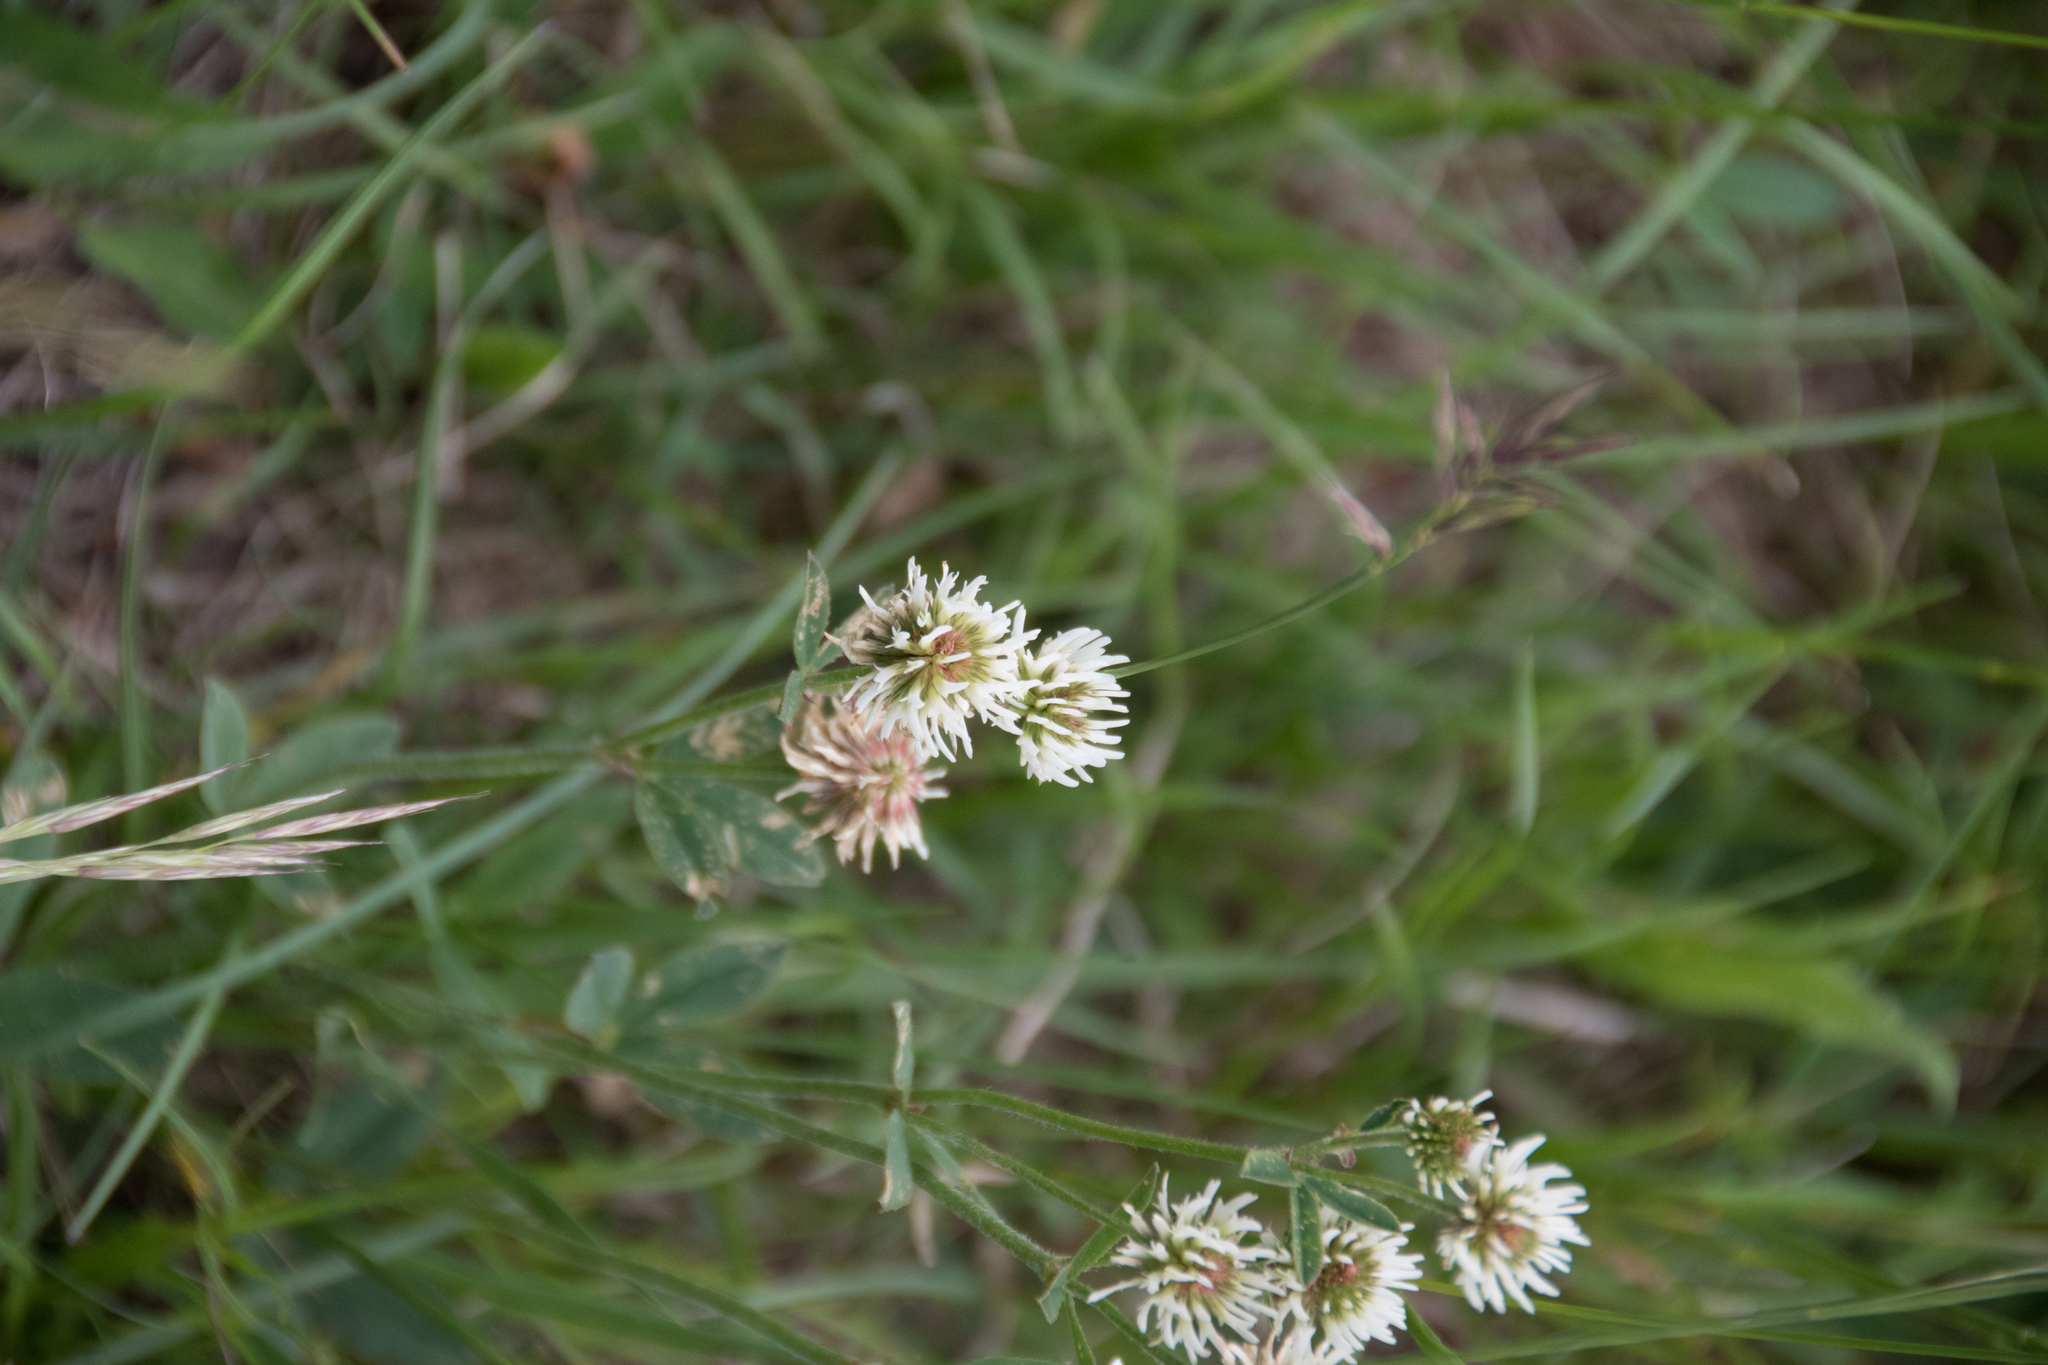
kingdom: Plantae
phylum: Tracheophyta
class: Magnoliopsida
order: Fabales
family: Fabaceae
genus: Trifolium
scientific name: Trifolium montanum
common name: Mountain clover
